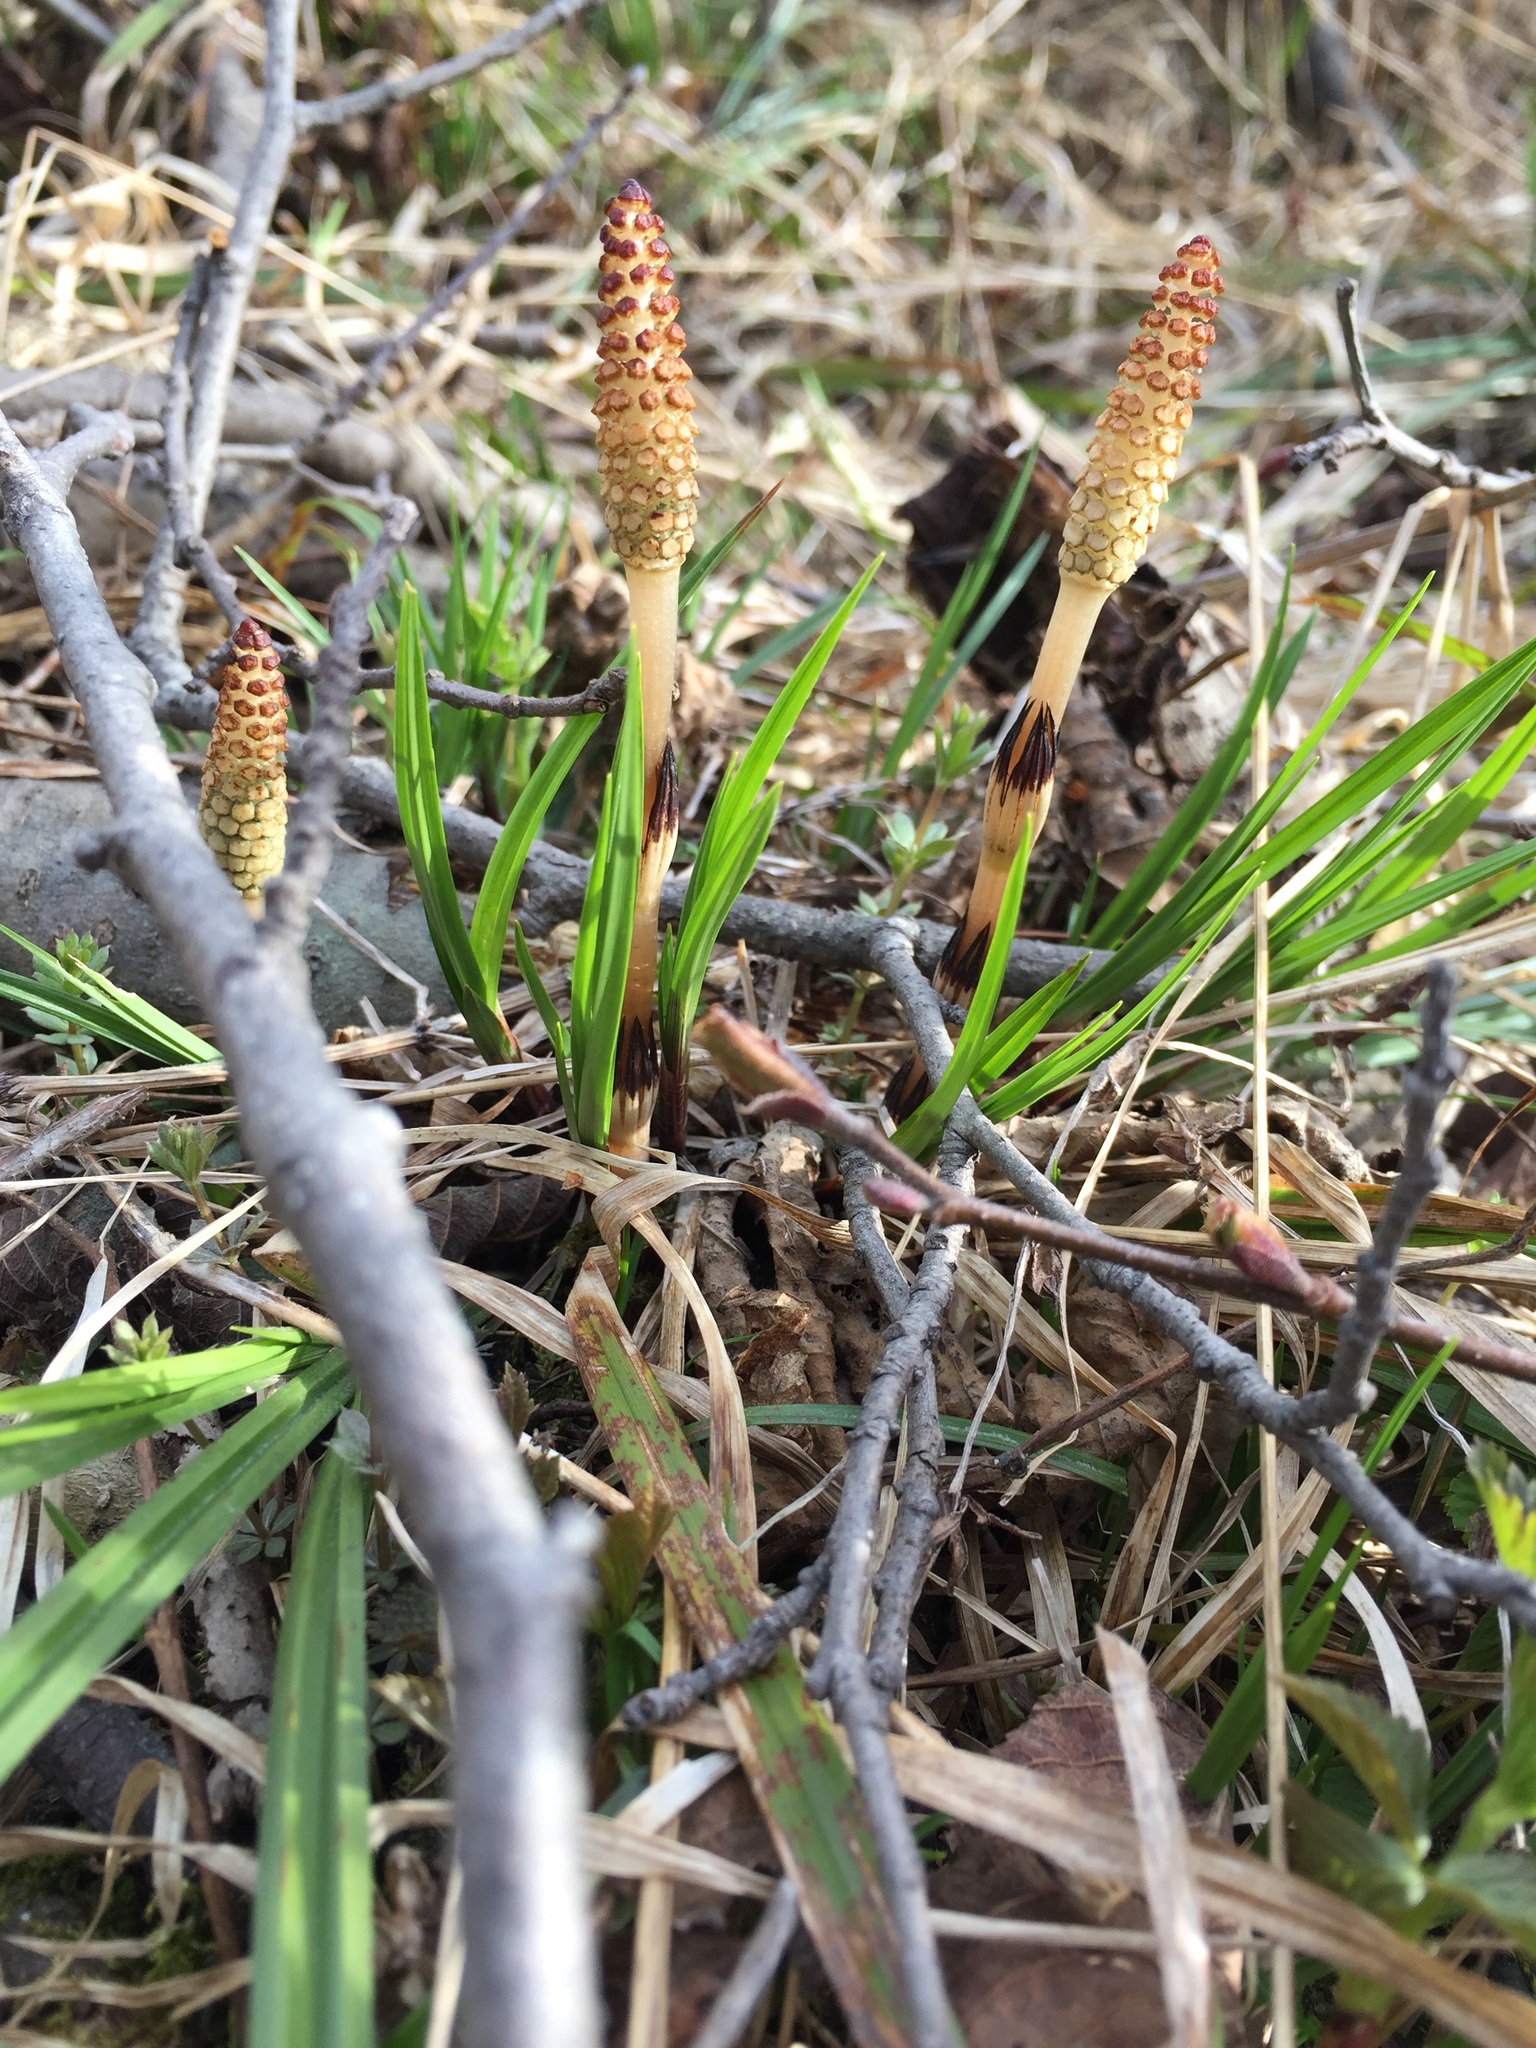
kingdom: Plantae
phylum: Tracheophyta
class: Polypodiopsida
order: Equisetales
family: Equisetaceae
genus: Equisetum
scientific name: Equisetum arvense
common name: Field horsetail
